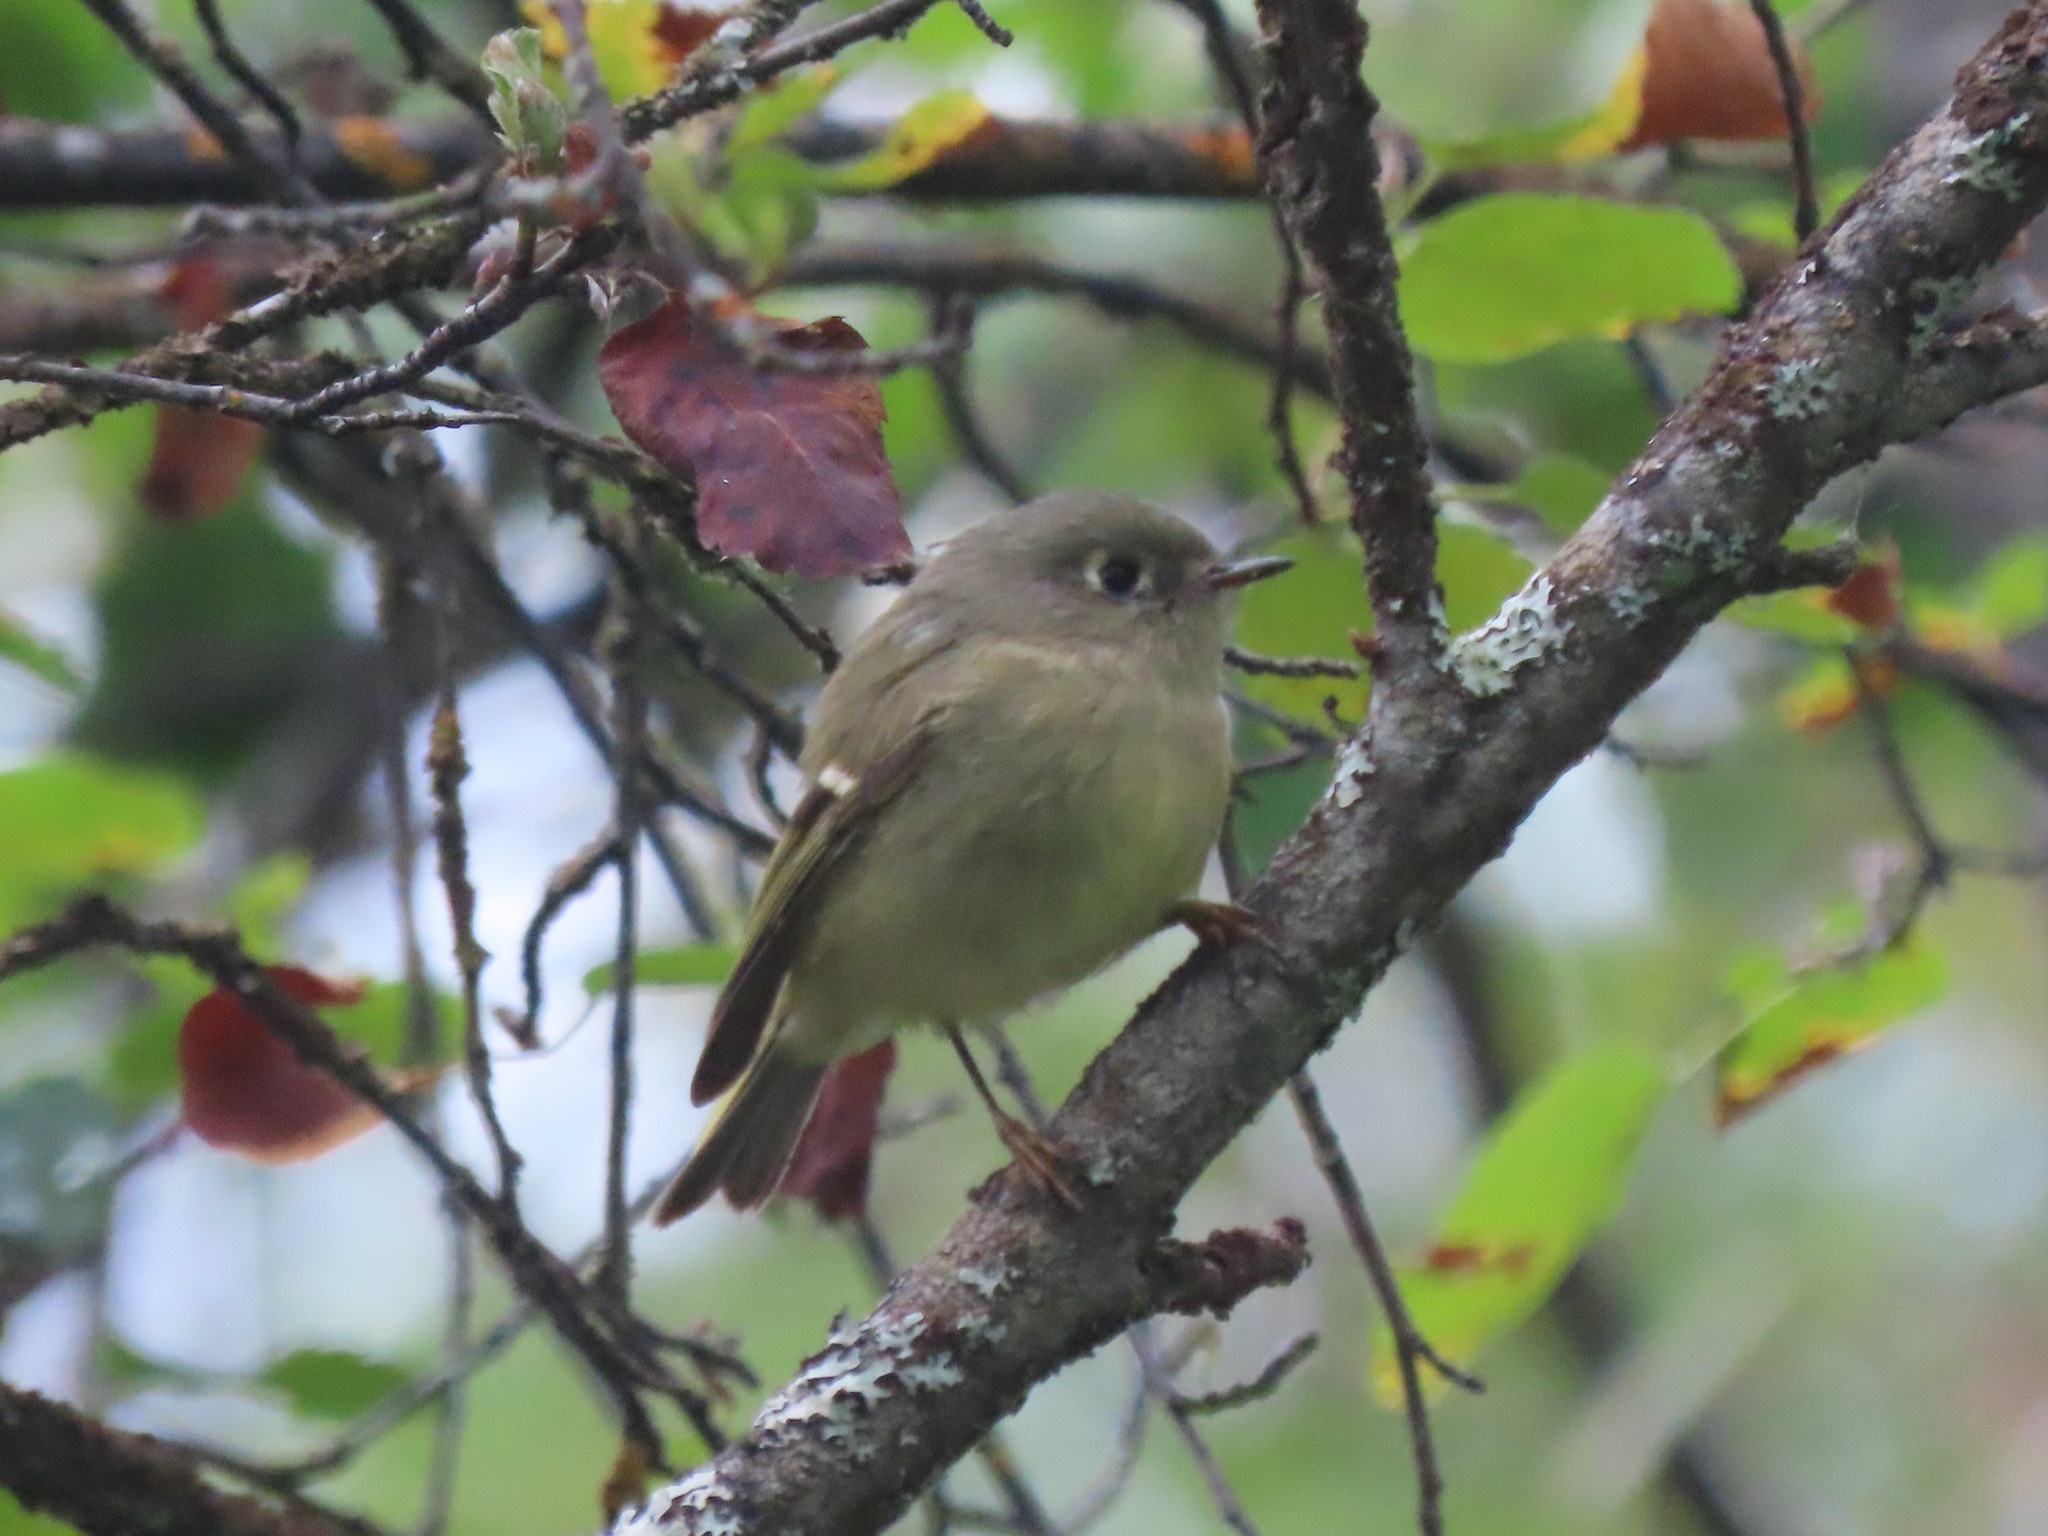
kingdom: Animalia
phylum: Chordata
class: Aves
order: Passeriformes
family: Regulidae
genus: Regulus
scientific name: Regulus calendula
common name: Ruby-crowned kinglet
